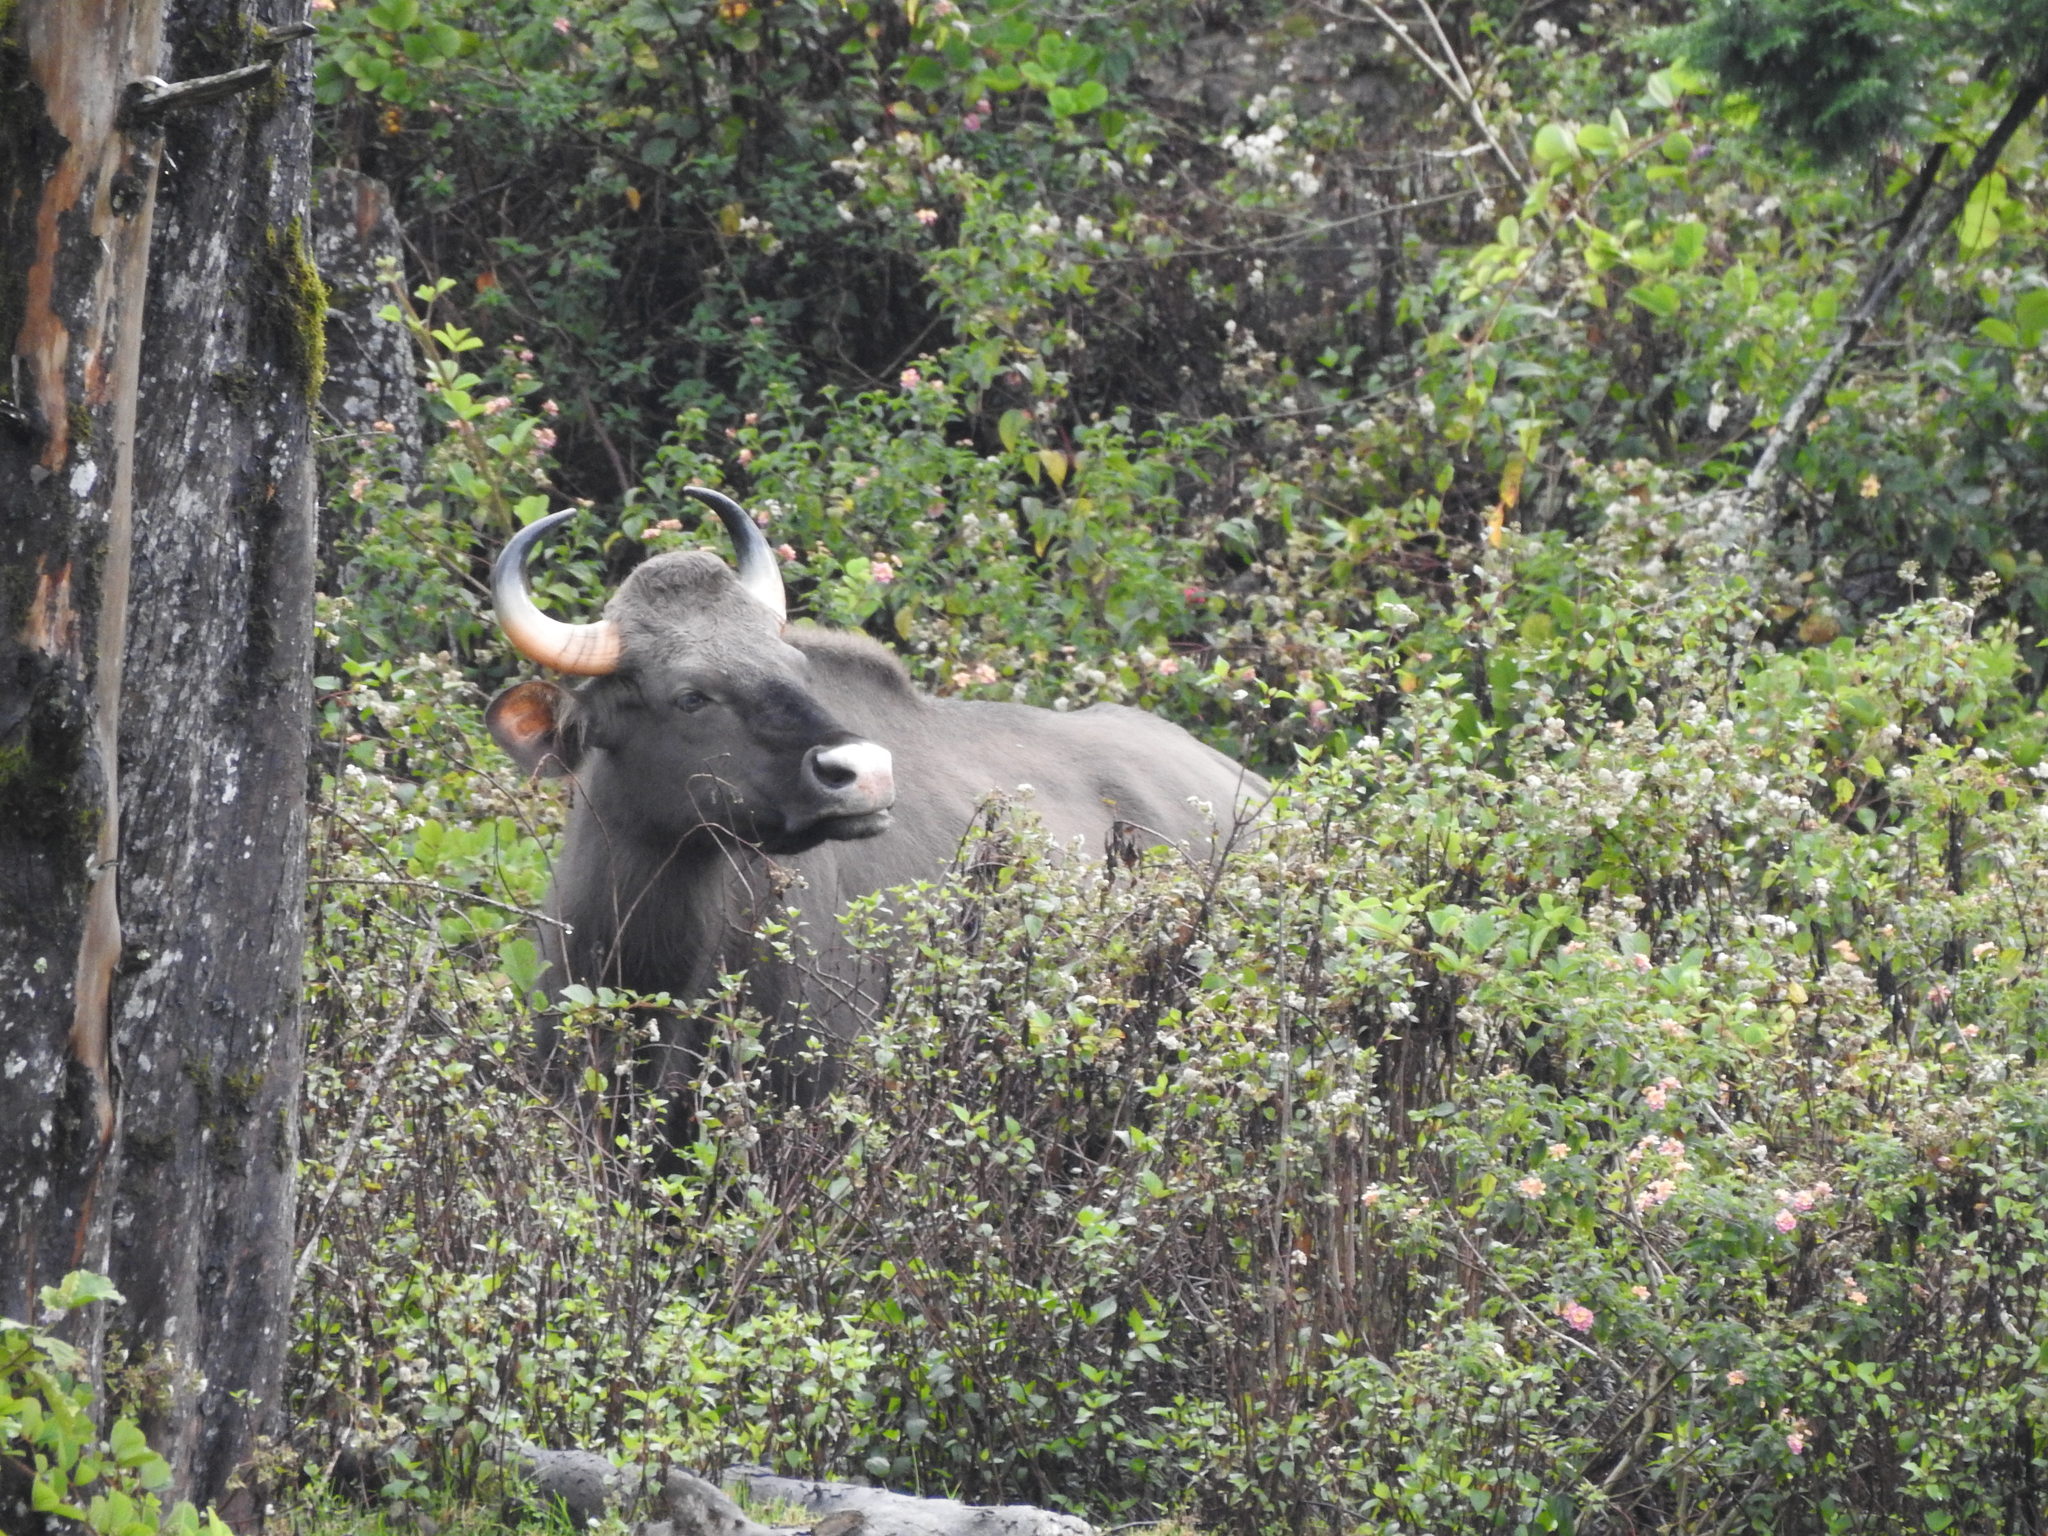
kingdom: Animalia
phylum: Chordata
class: Mammalia
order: Artiodactyla
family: Bovidae
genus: Bos
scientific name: Bos frontalis
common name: Gaur
